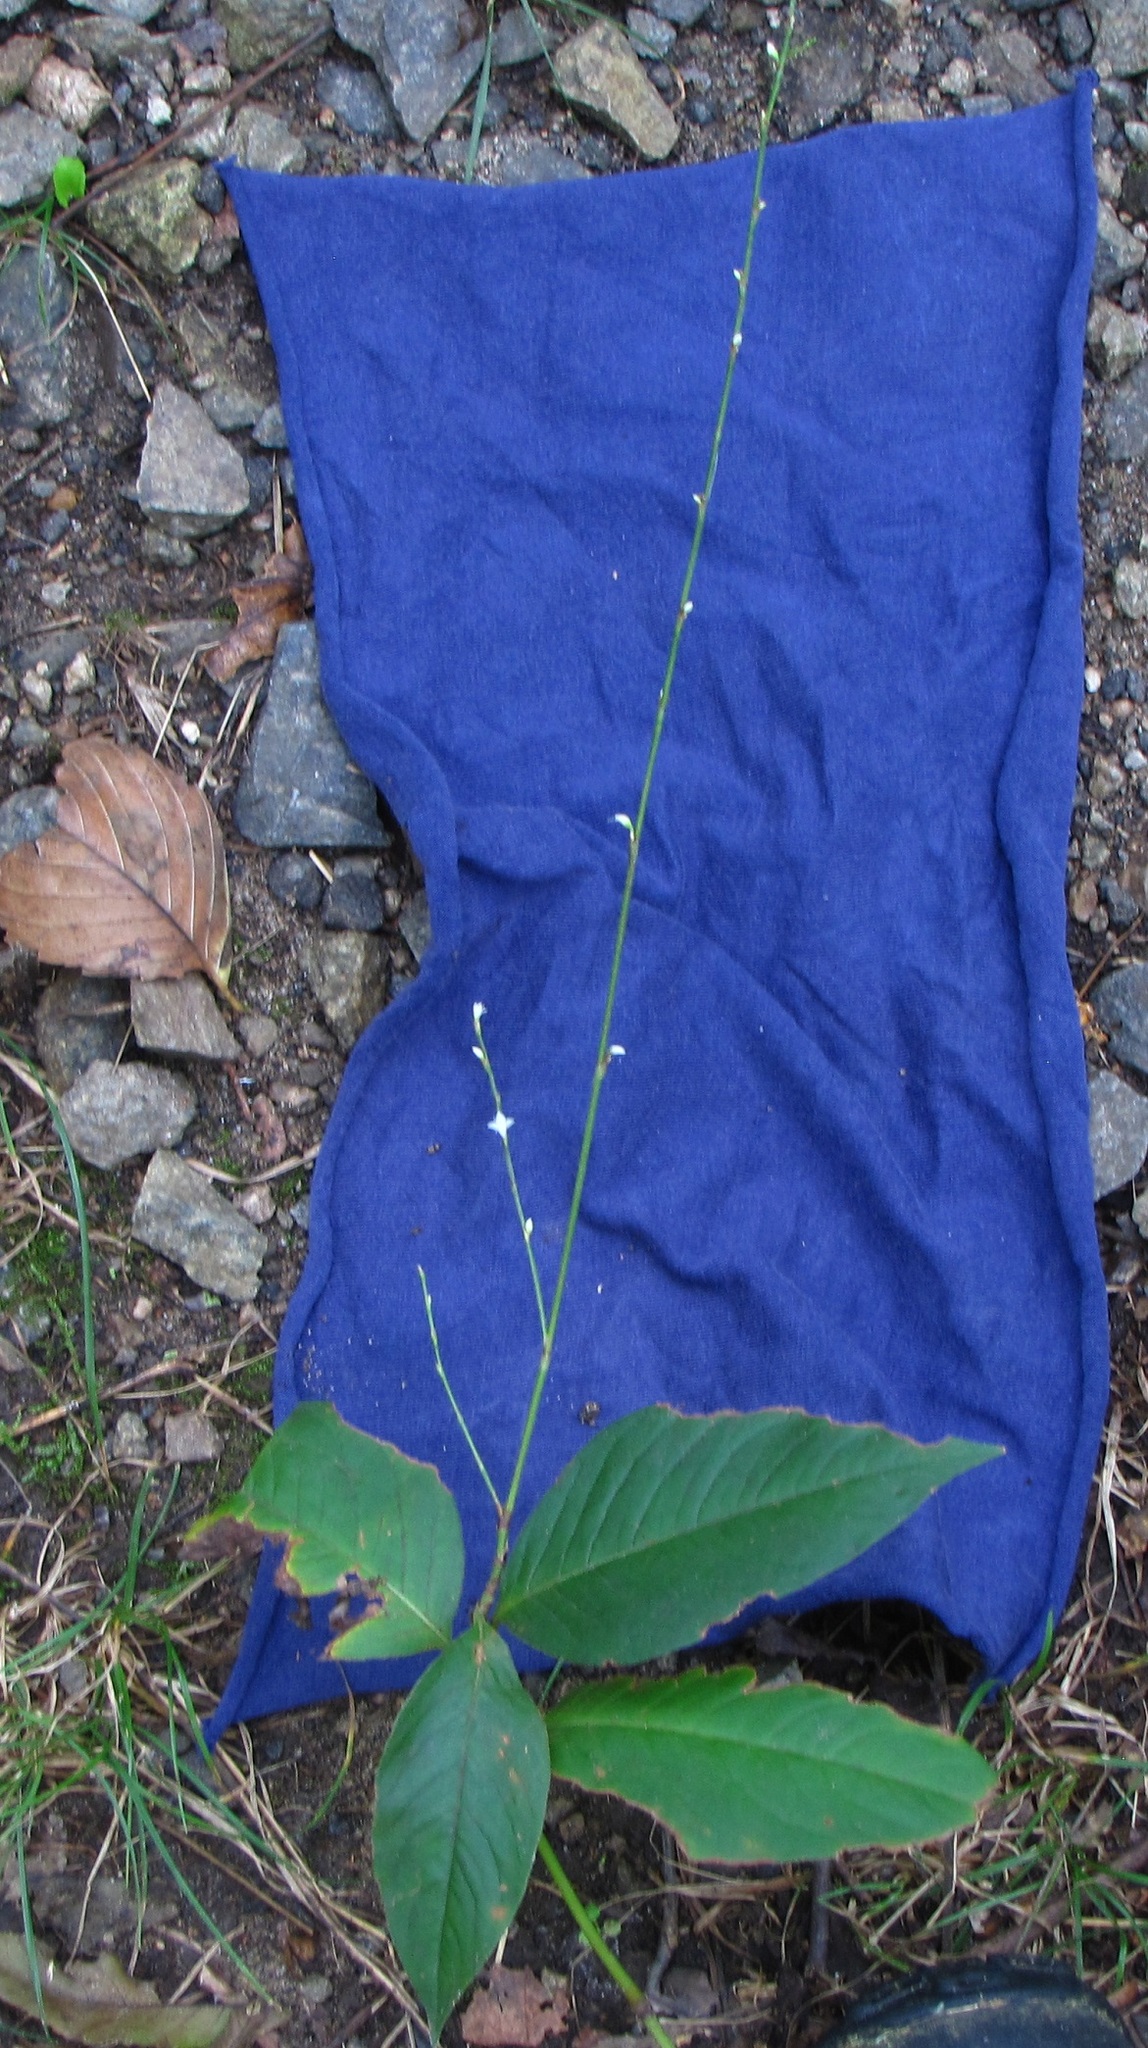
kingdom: Plantae
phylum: Tracheophyta
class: Magnoliopsida
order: Caryophyllales
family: Polygonaceae
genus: Persicaria
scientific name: Persicaria virginiana
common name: Jumpseed
